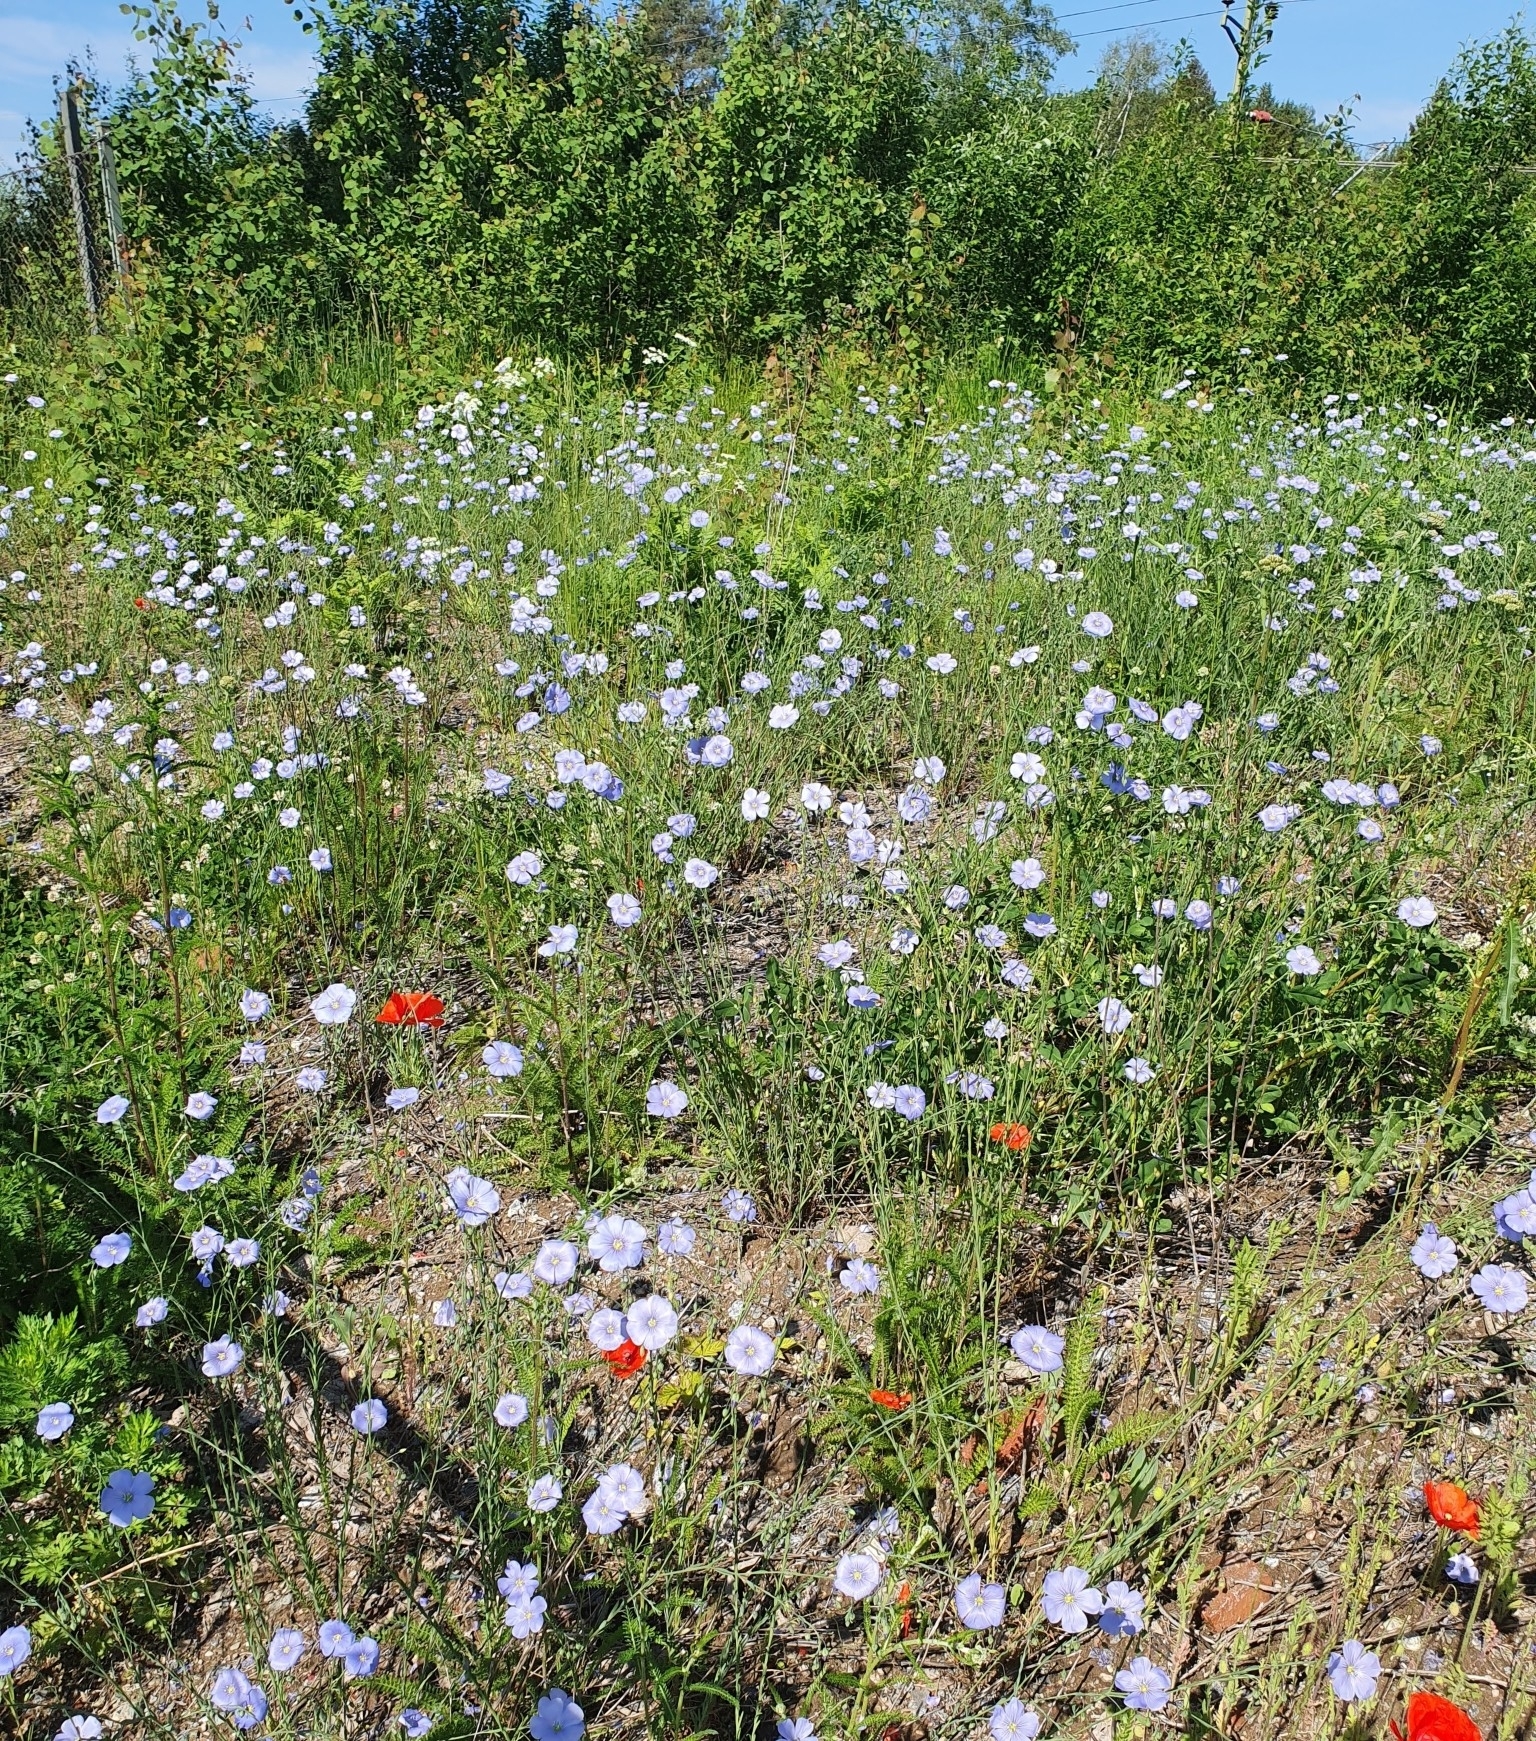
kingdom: Plantae
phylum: Tracheophyta
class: Magnoliopsida
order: Malpighiales
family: Linaceae
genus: Linum
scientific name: Linum usitatissimum
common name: Flax
